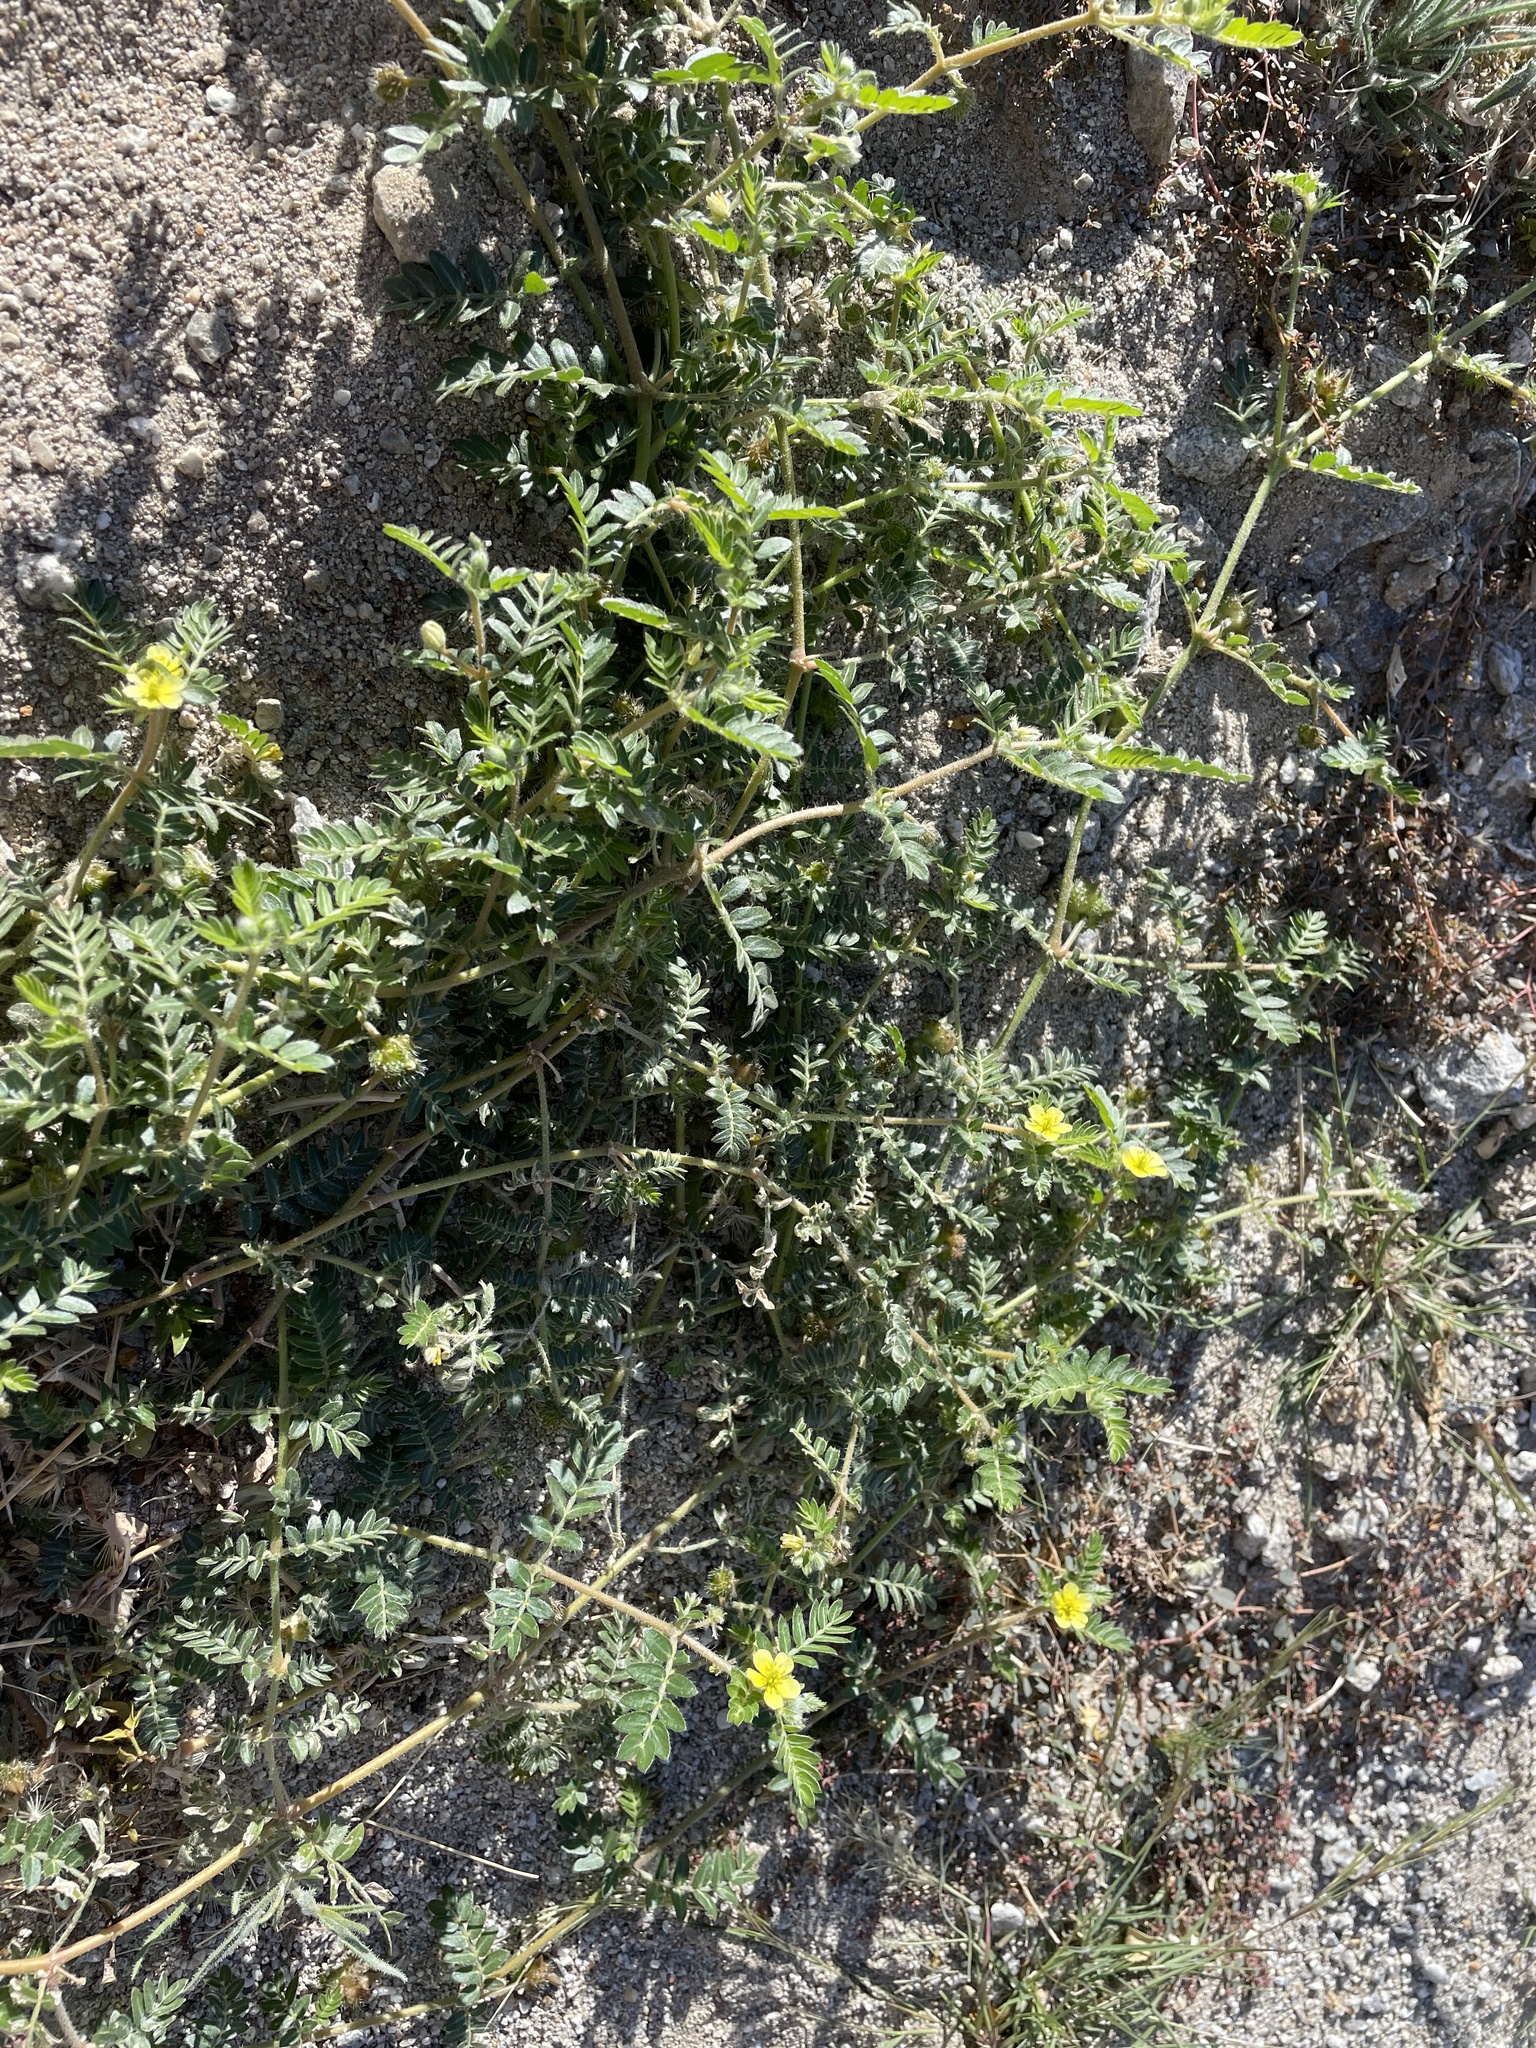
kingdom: Plantae
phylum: Tracheophyta
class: Magnoliopsida
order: Zygophyllales
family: Zygophyllaceae
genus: Tribulus
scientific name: Tribulus terrestris
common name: Puncturevine
